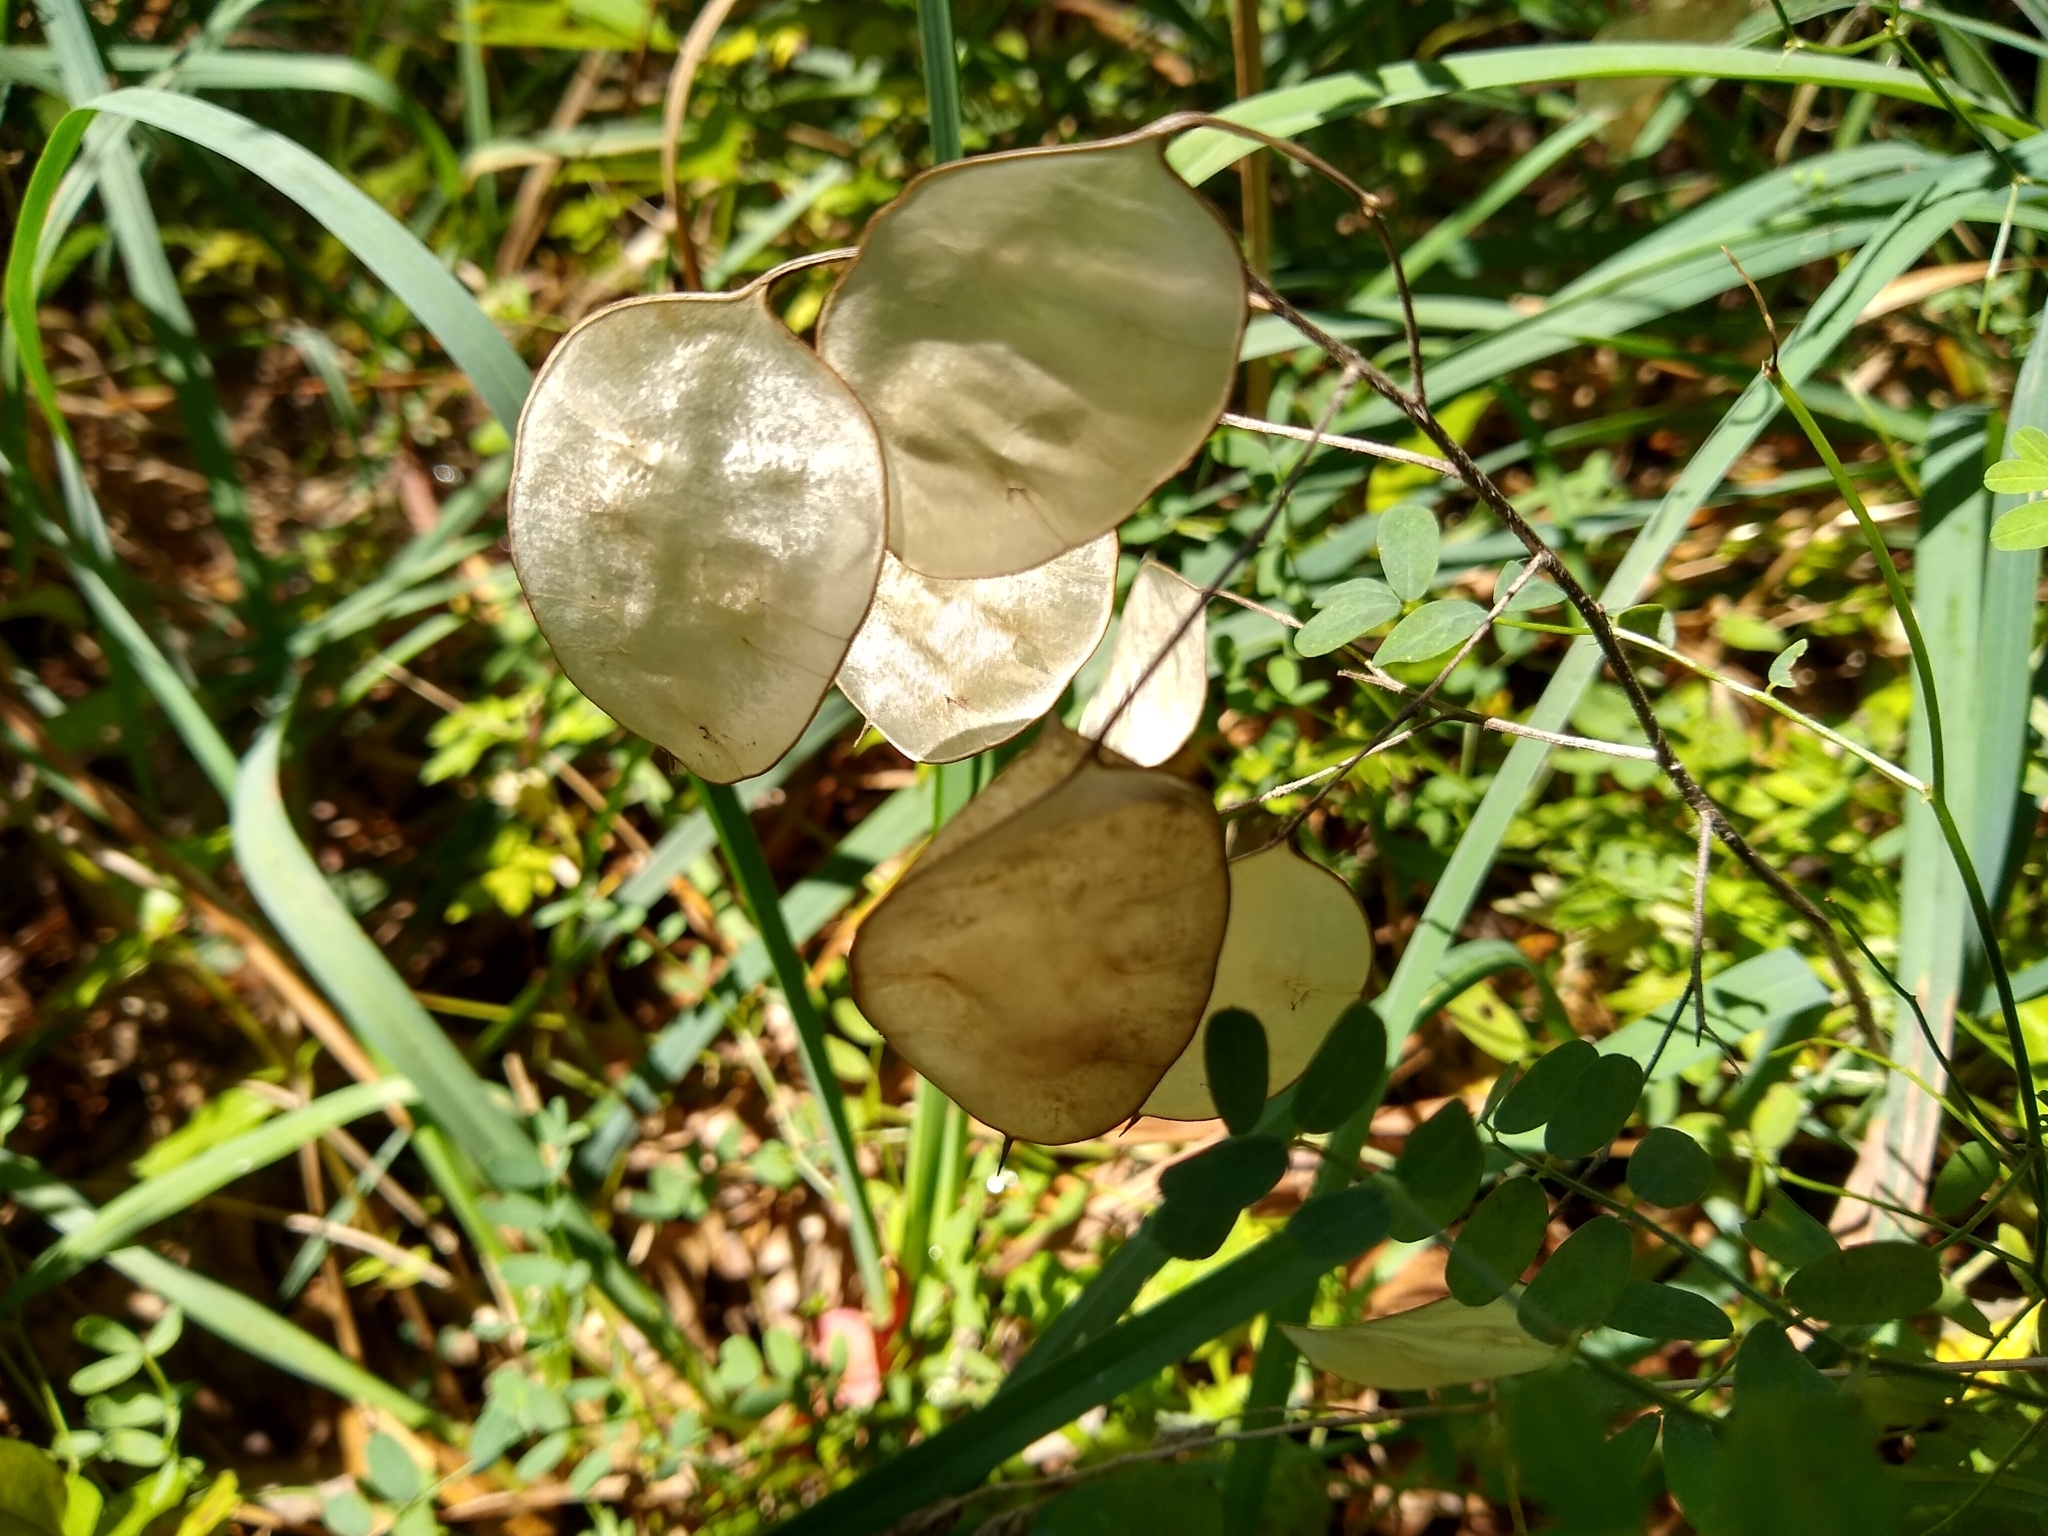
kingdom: Plantae
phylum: Tracheophyta
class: Magnoliopsida
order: Brassicales
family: Brassicaceae
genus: Lunaria
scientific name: Lunaria annua
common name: Honesty
